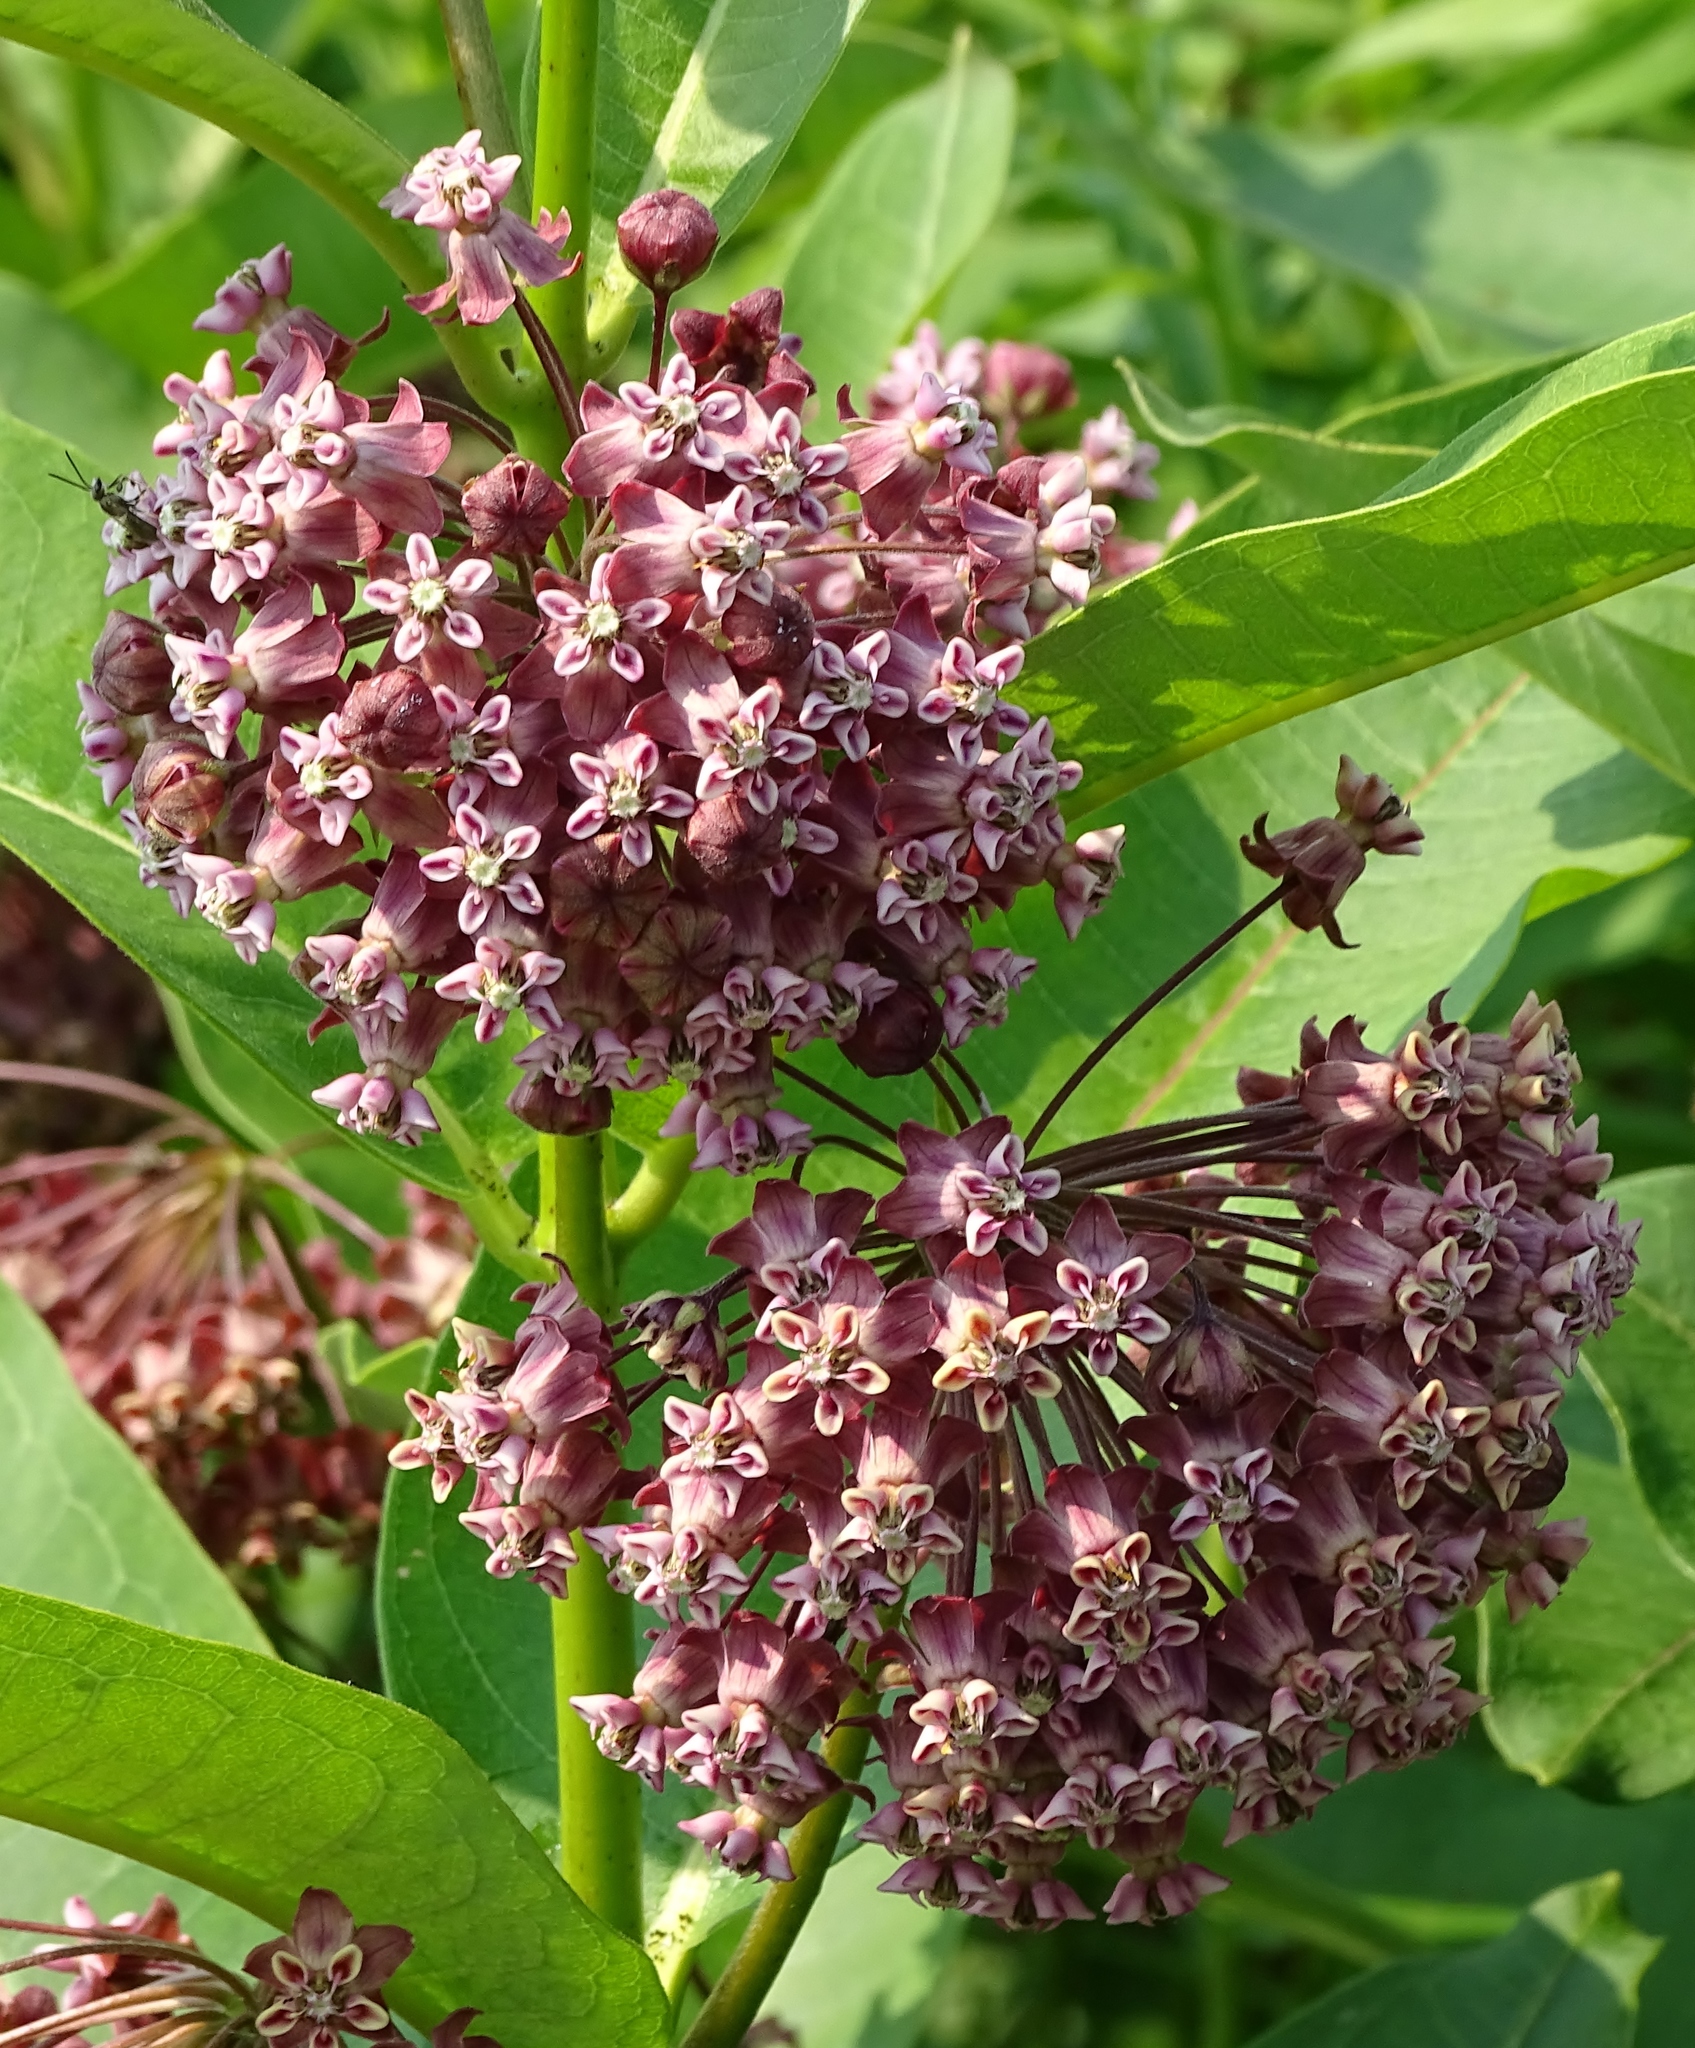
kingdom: Plantae
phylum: Tracheophyta
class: Magnoliopsida
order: Gentianales
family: Apocynaceae
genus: Asclepias
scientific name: Asclepias syriaca
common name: Common milkweed
